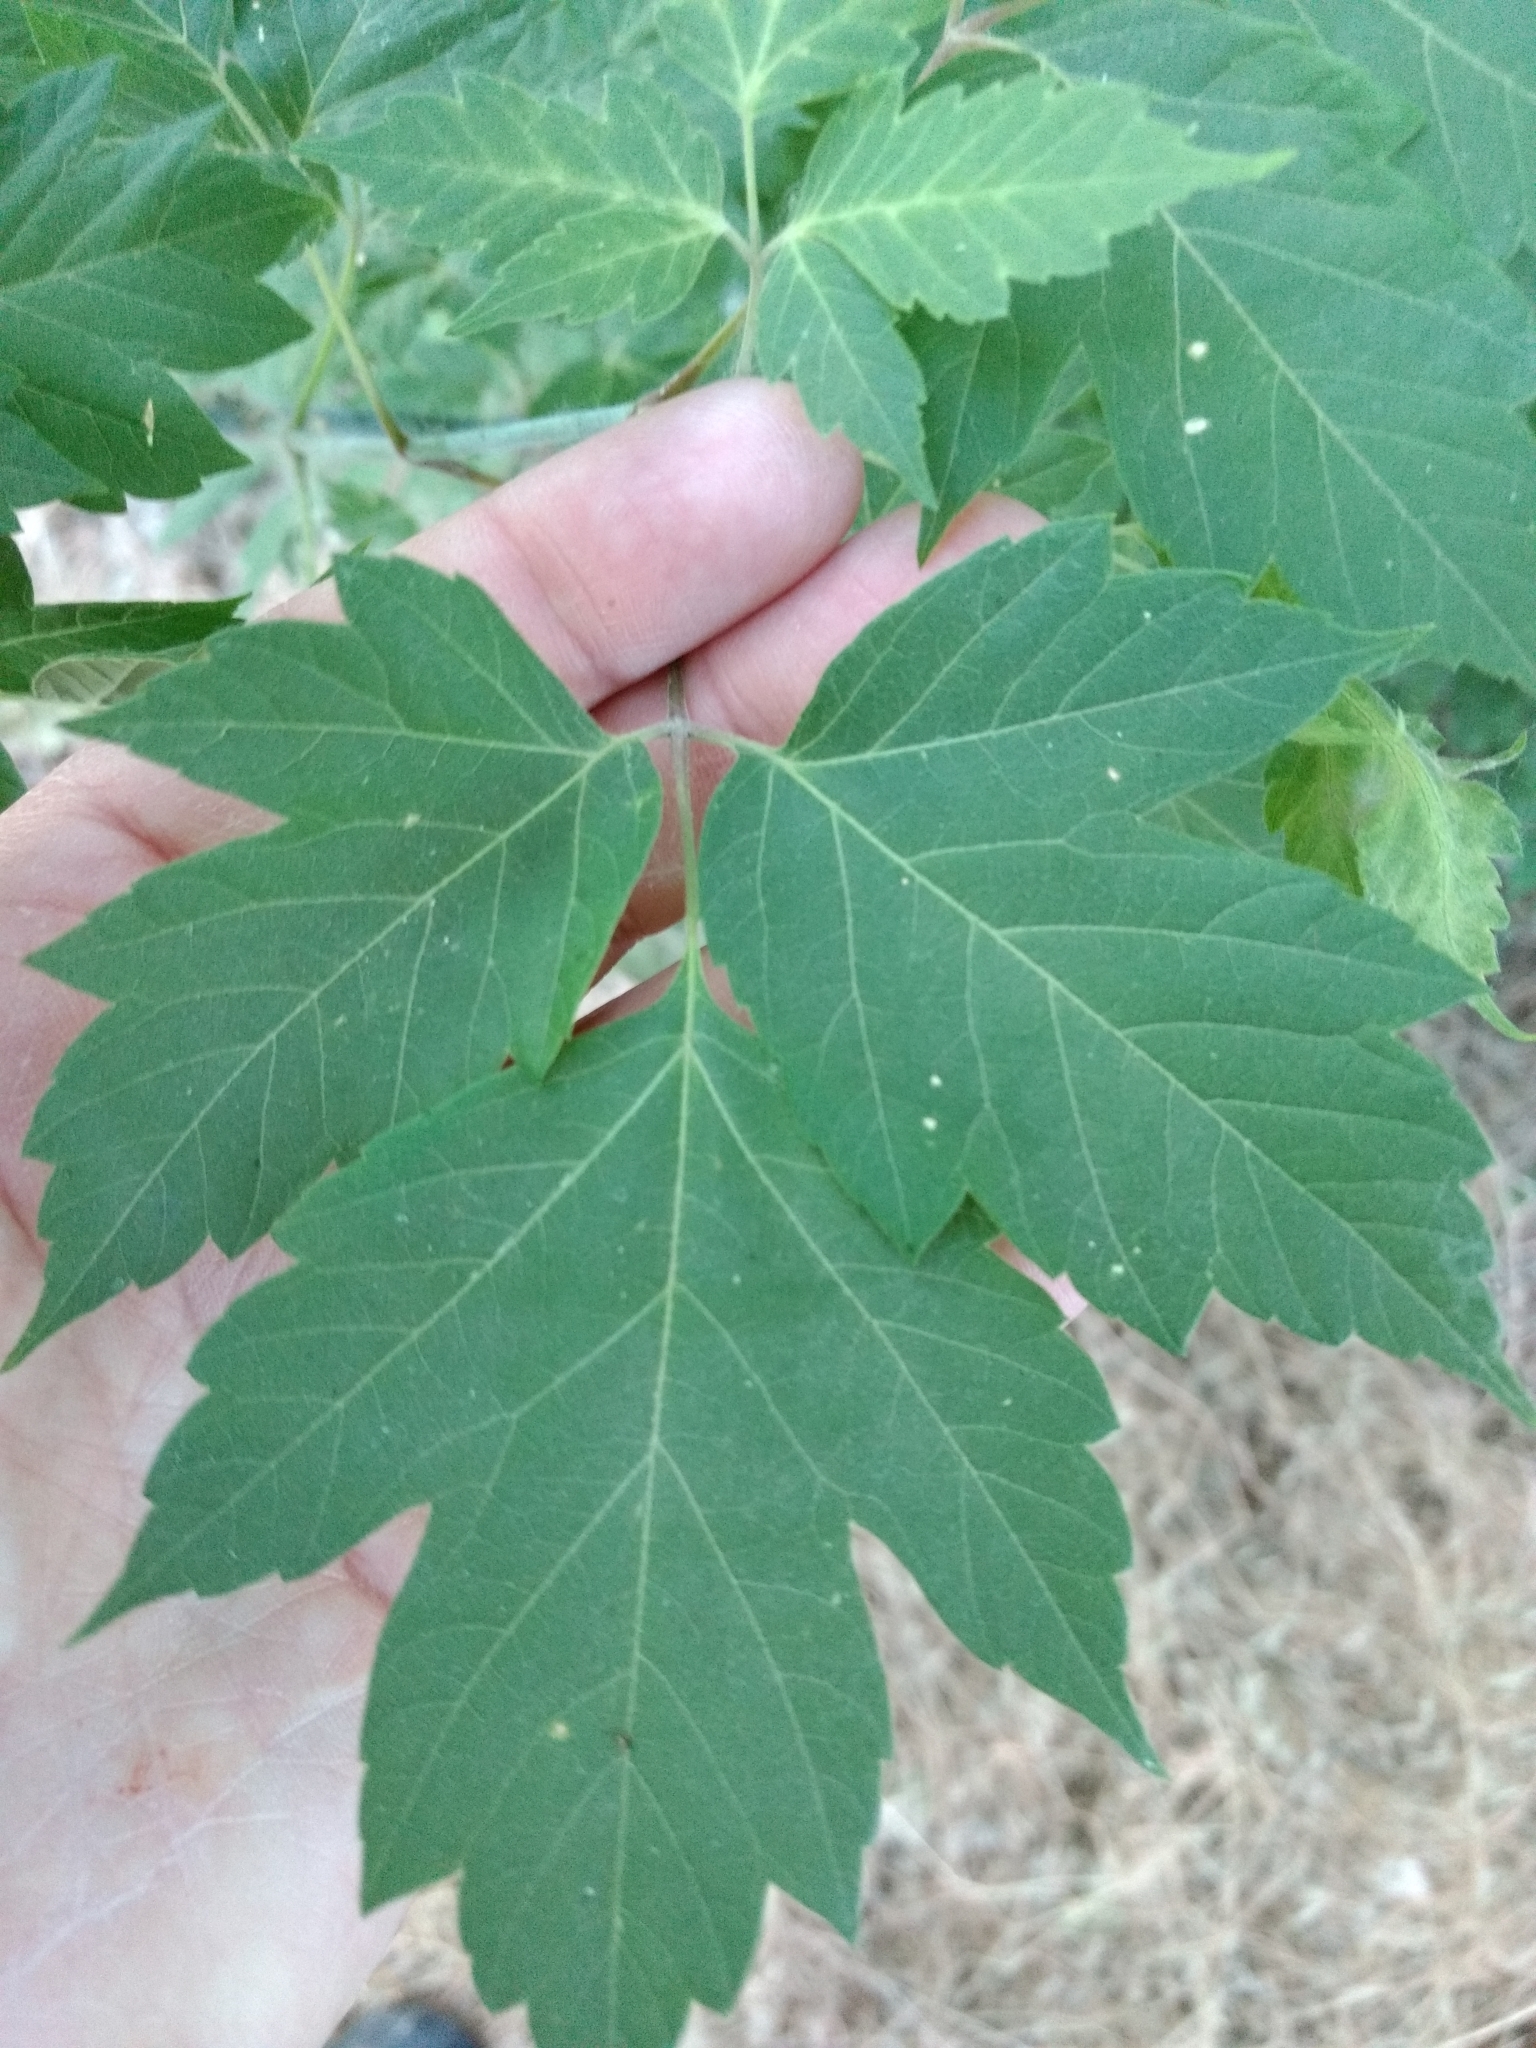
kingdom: Plantae
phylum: Tracheophyta
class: Magnoliopsida
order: Sapindales
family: Sapindaceae
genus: Acer
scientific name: Acer negundo
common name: Ashleaf maple
